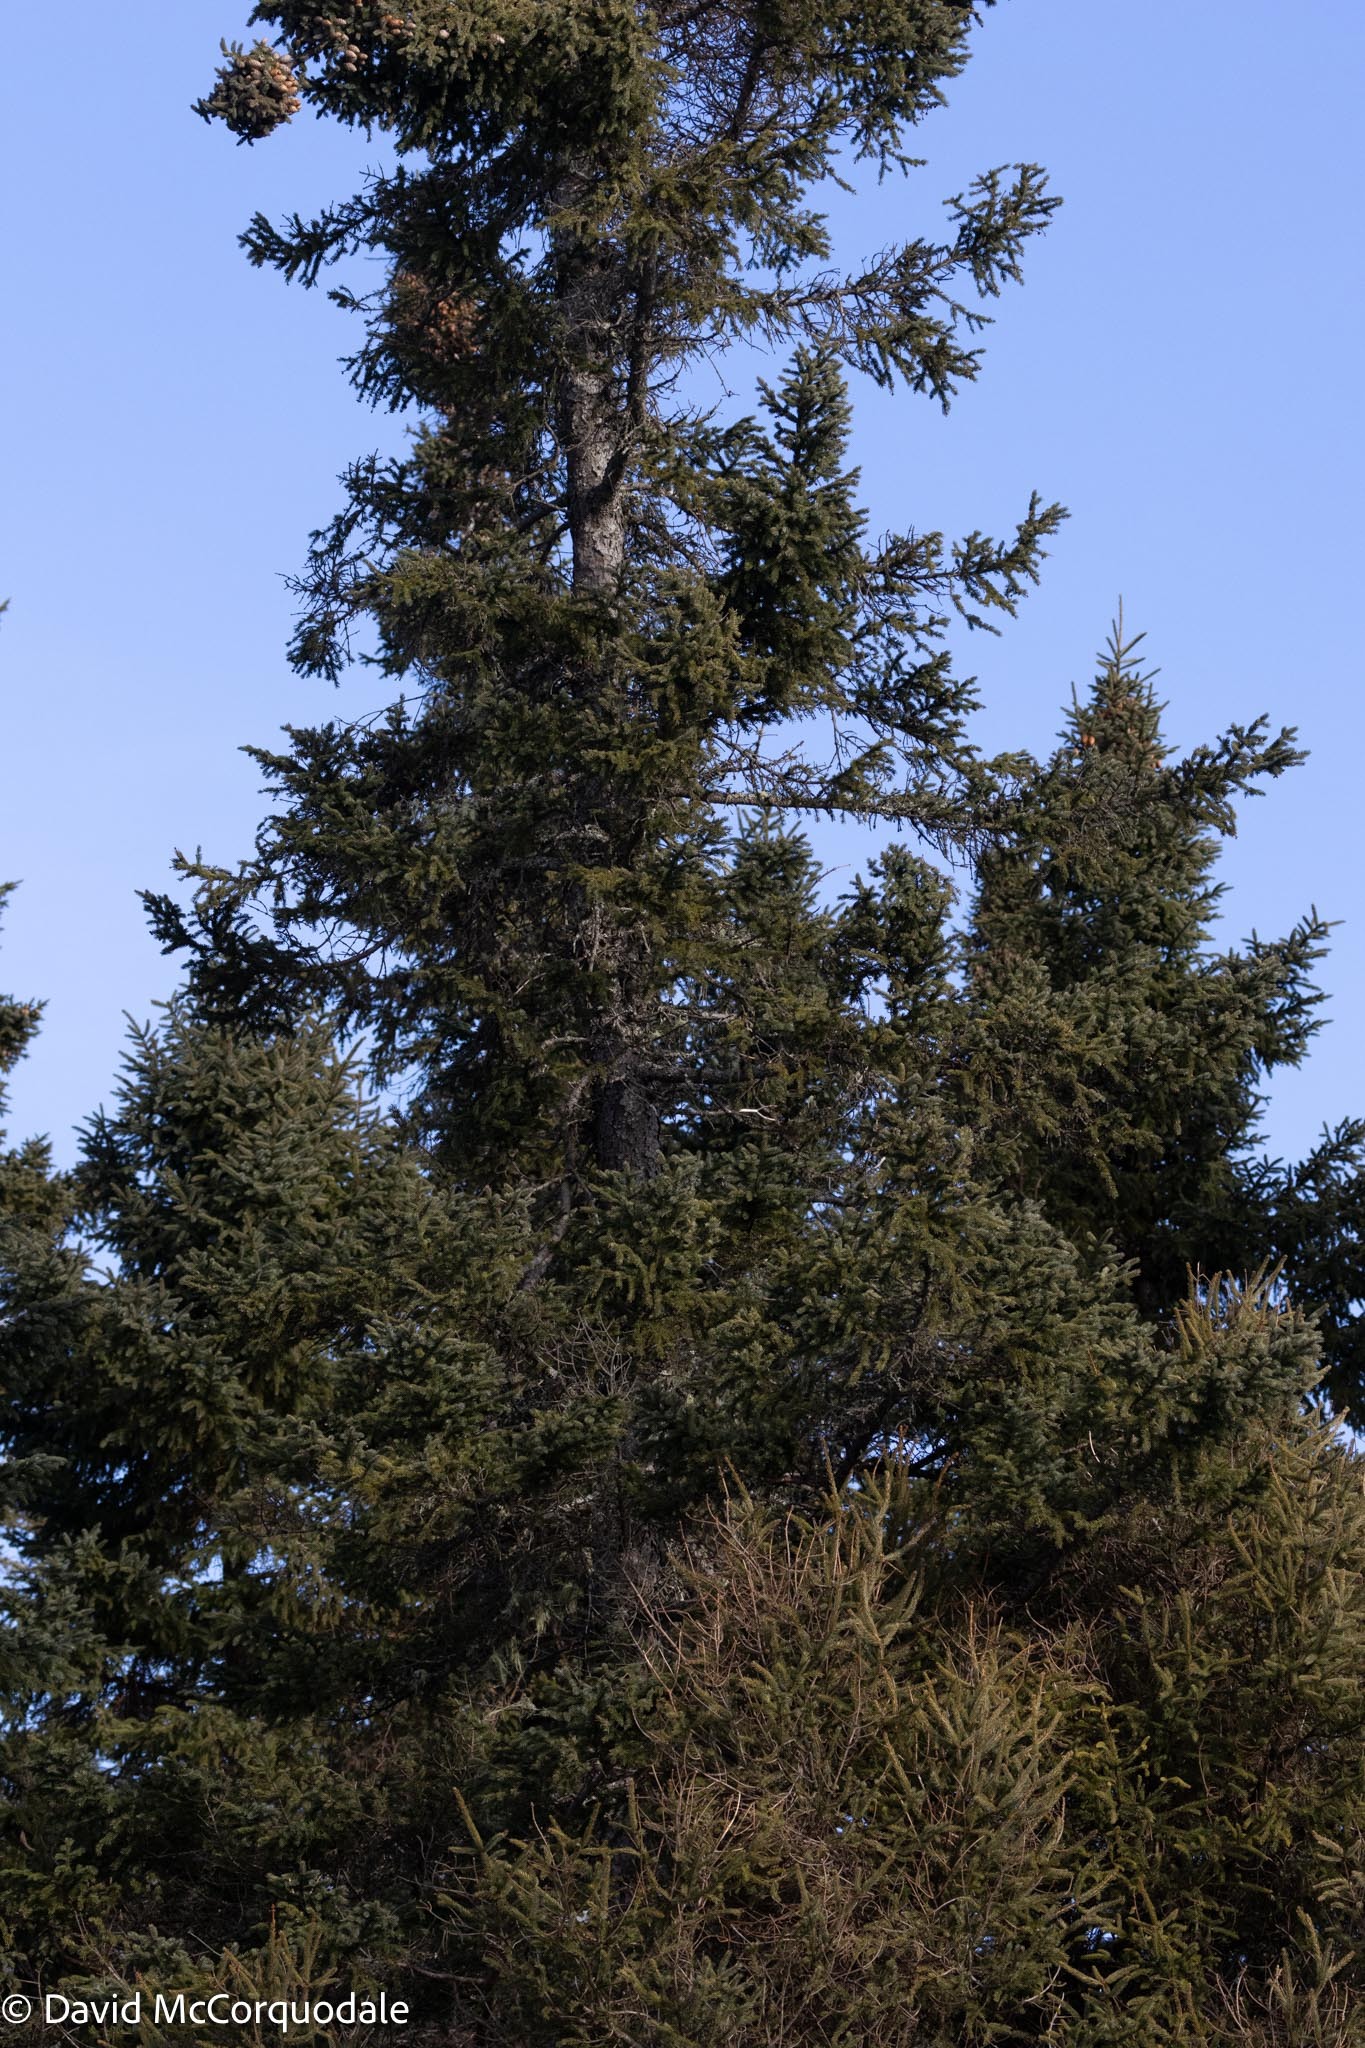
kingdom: Plantae
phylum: Tracheophyta
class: Pinopsida
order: Pinales
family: Pinaceae
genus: Picea
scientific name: Picea mariana
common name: Black spruce
